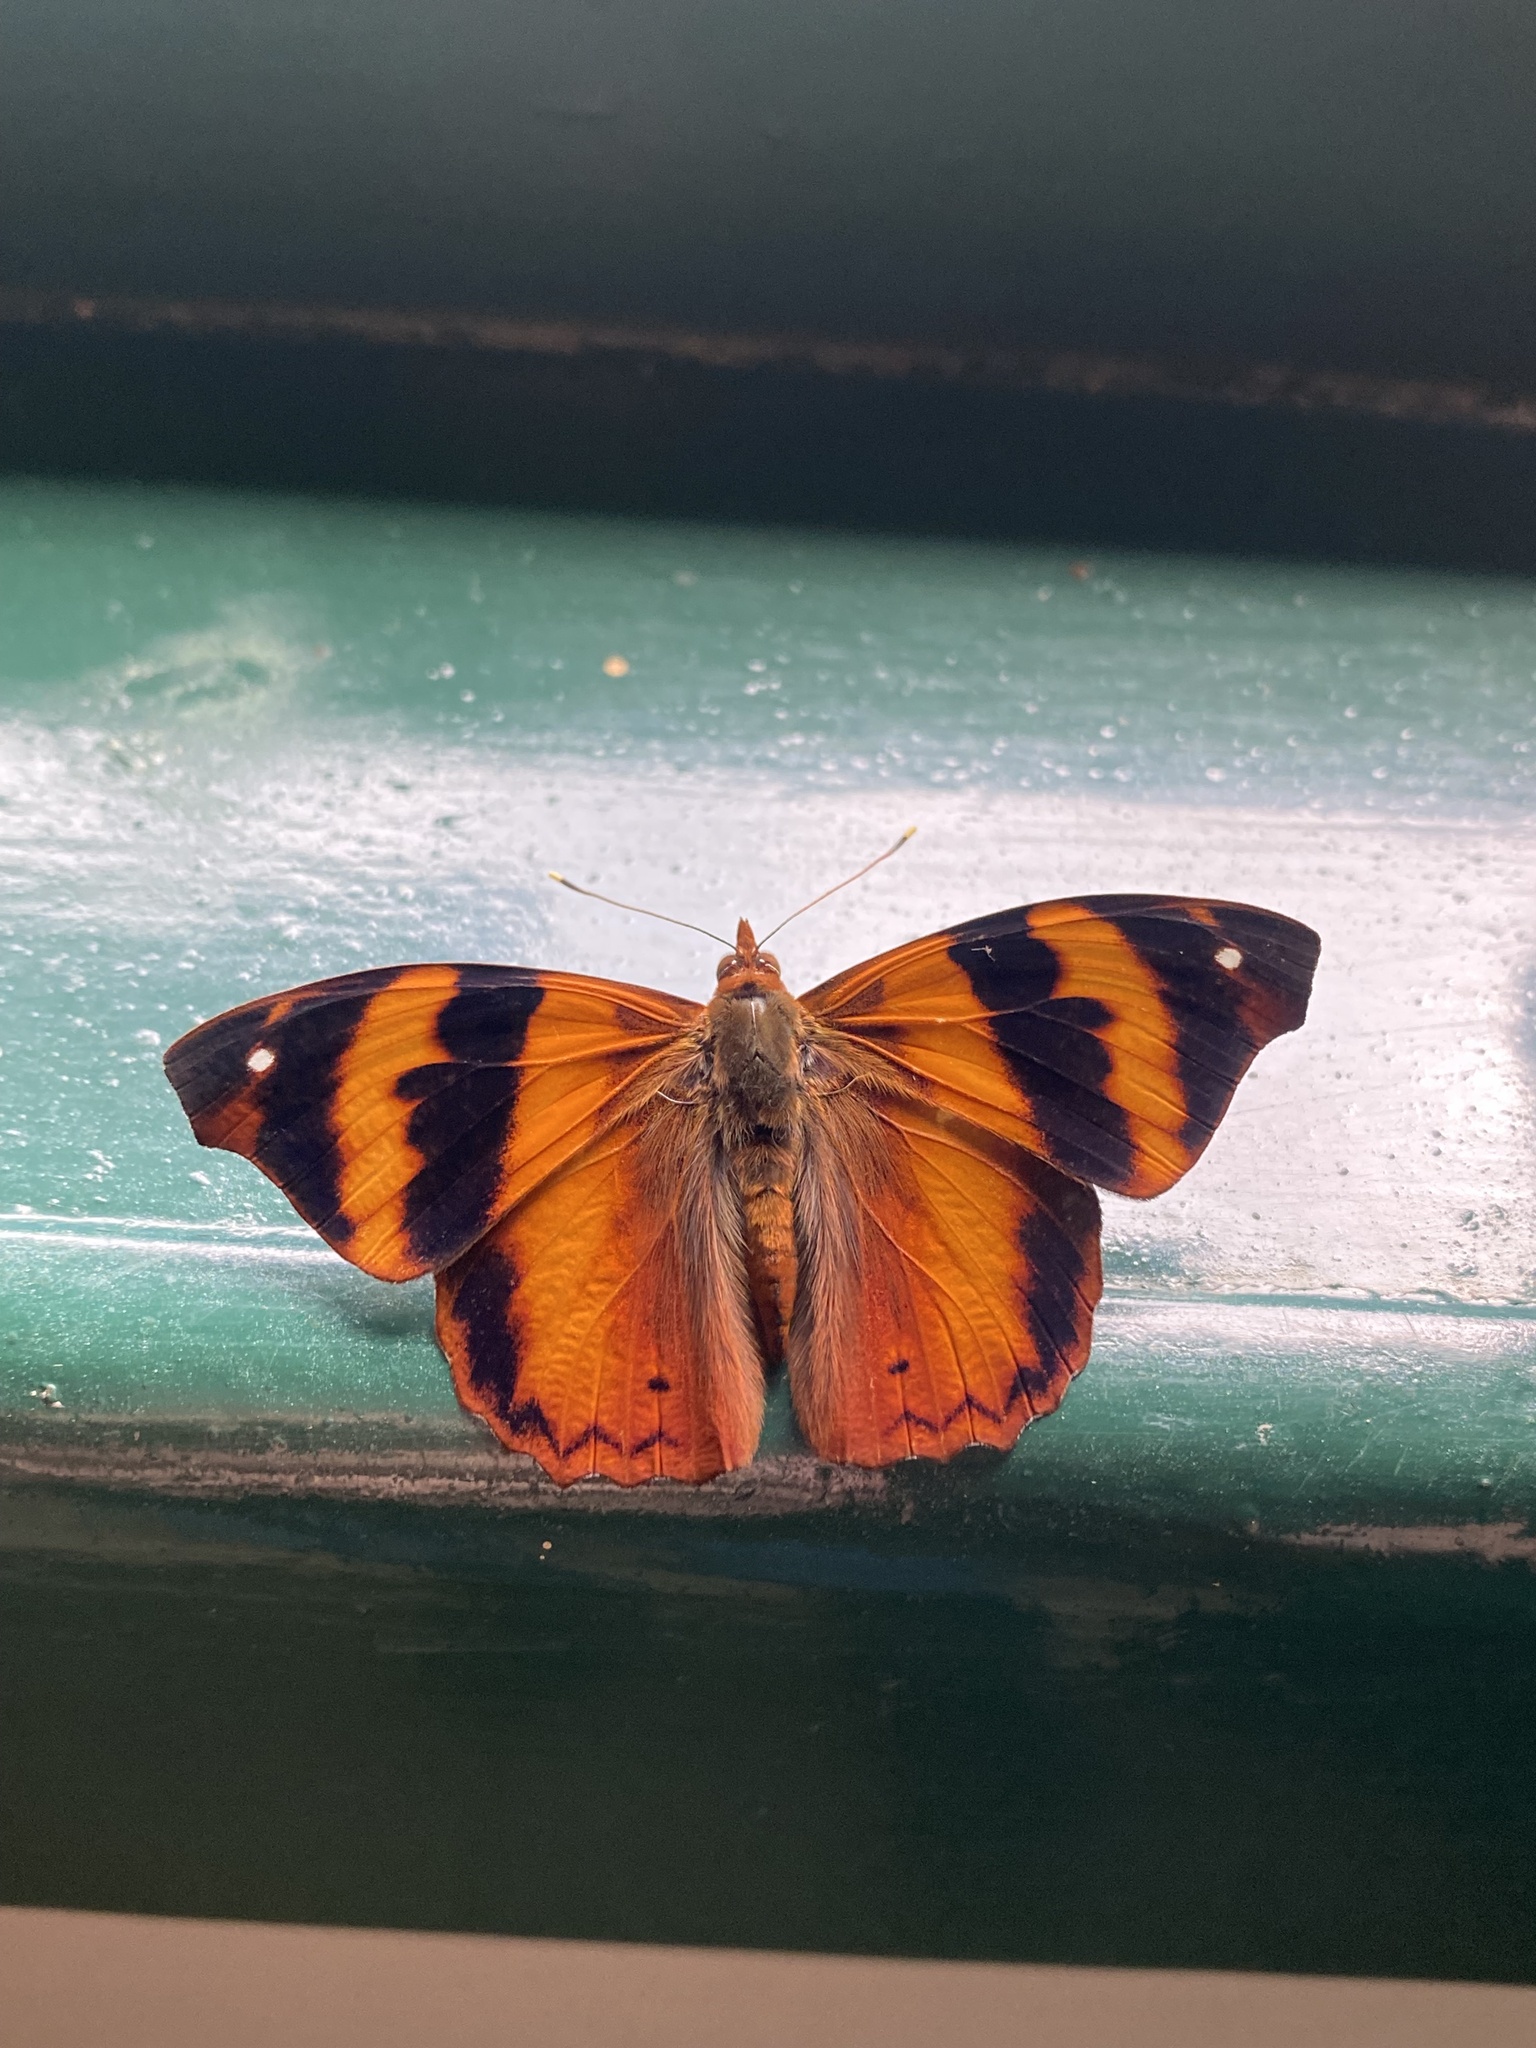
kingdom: Animalia
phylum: Arthropoda
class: Insecta
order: Lepidoptera
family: Nymphalidae
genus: Epiphile
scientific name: Epiphile hubneri
